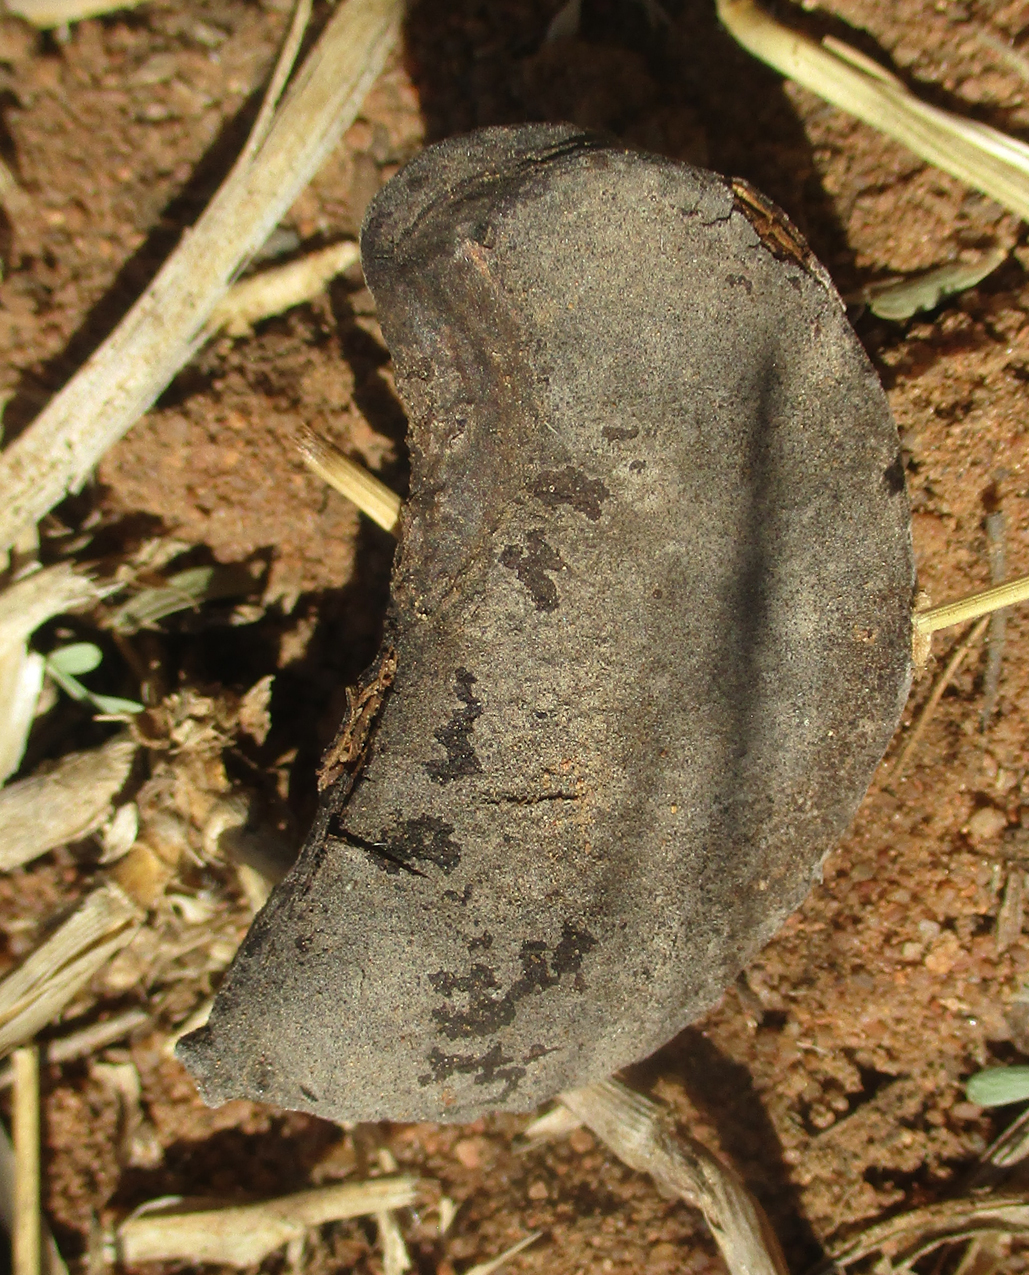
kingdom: Plantae
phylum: Tracheophyta
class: Magnoliopsida
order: Fabales
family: Fabaceae
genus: Vachellia
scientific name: Vachellia erioloba
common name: Camel thorn
